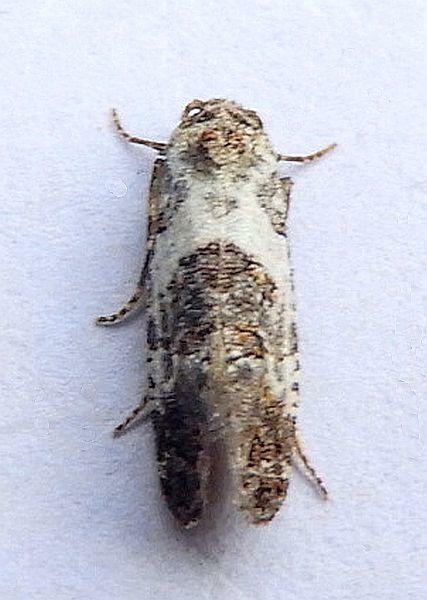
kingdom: Animalia
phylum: Arthropoda
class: Insecta
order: Lepidoptera
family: Tortricidae
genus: Rudenia
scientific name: Rudenia leguminana
